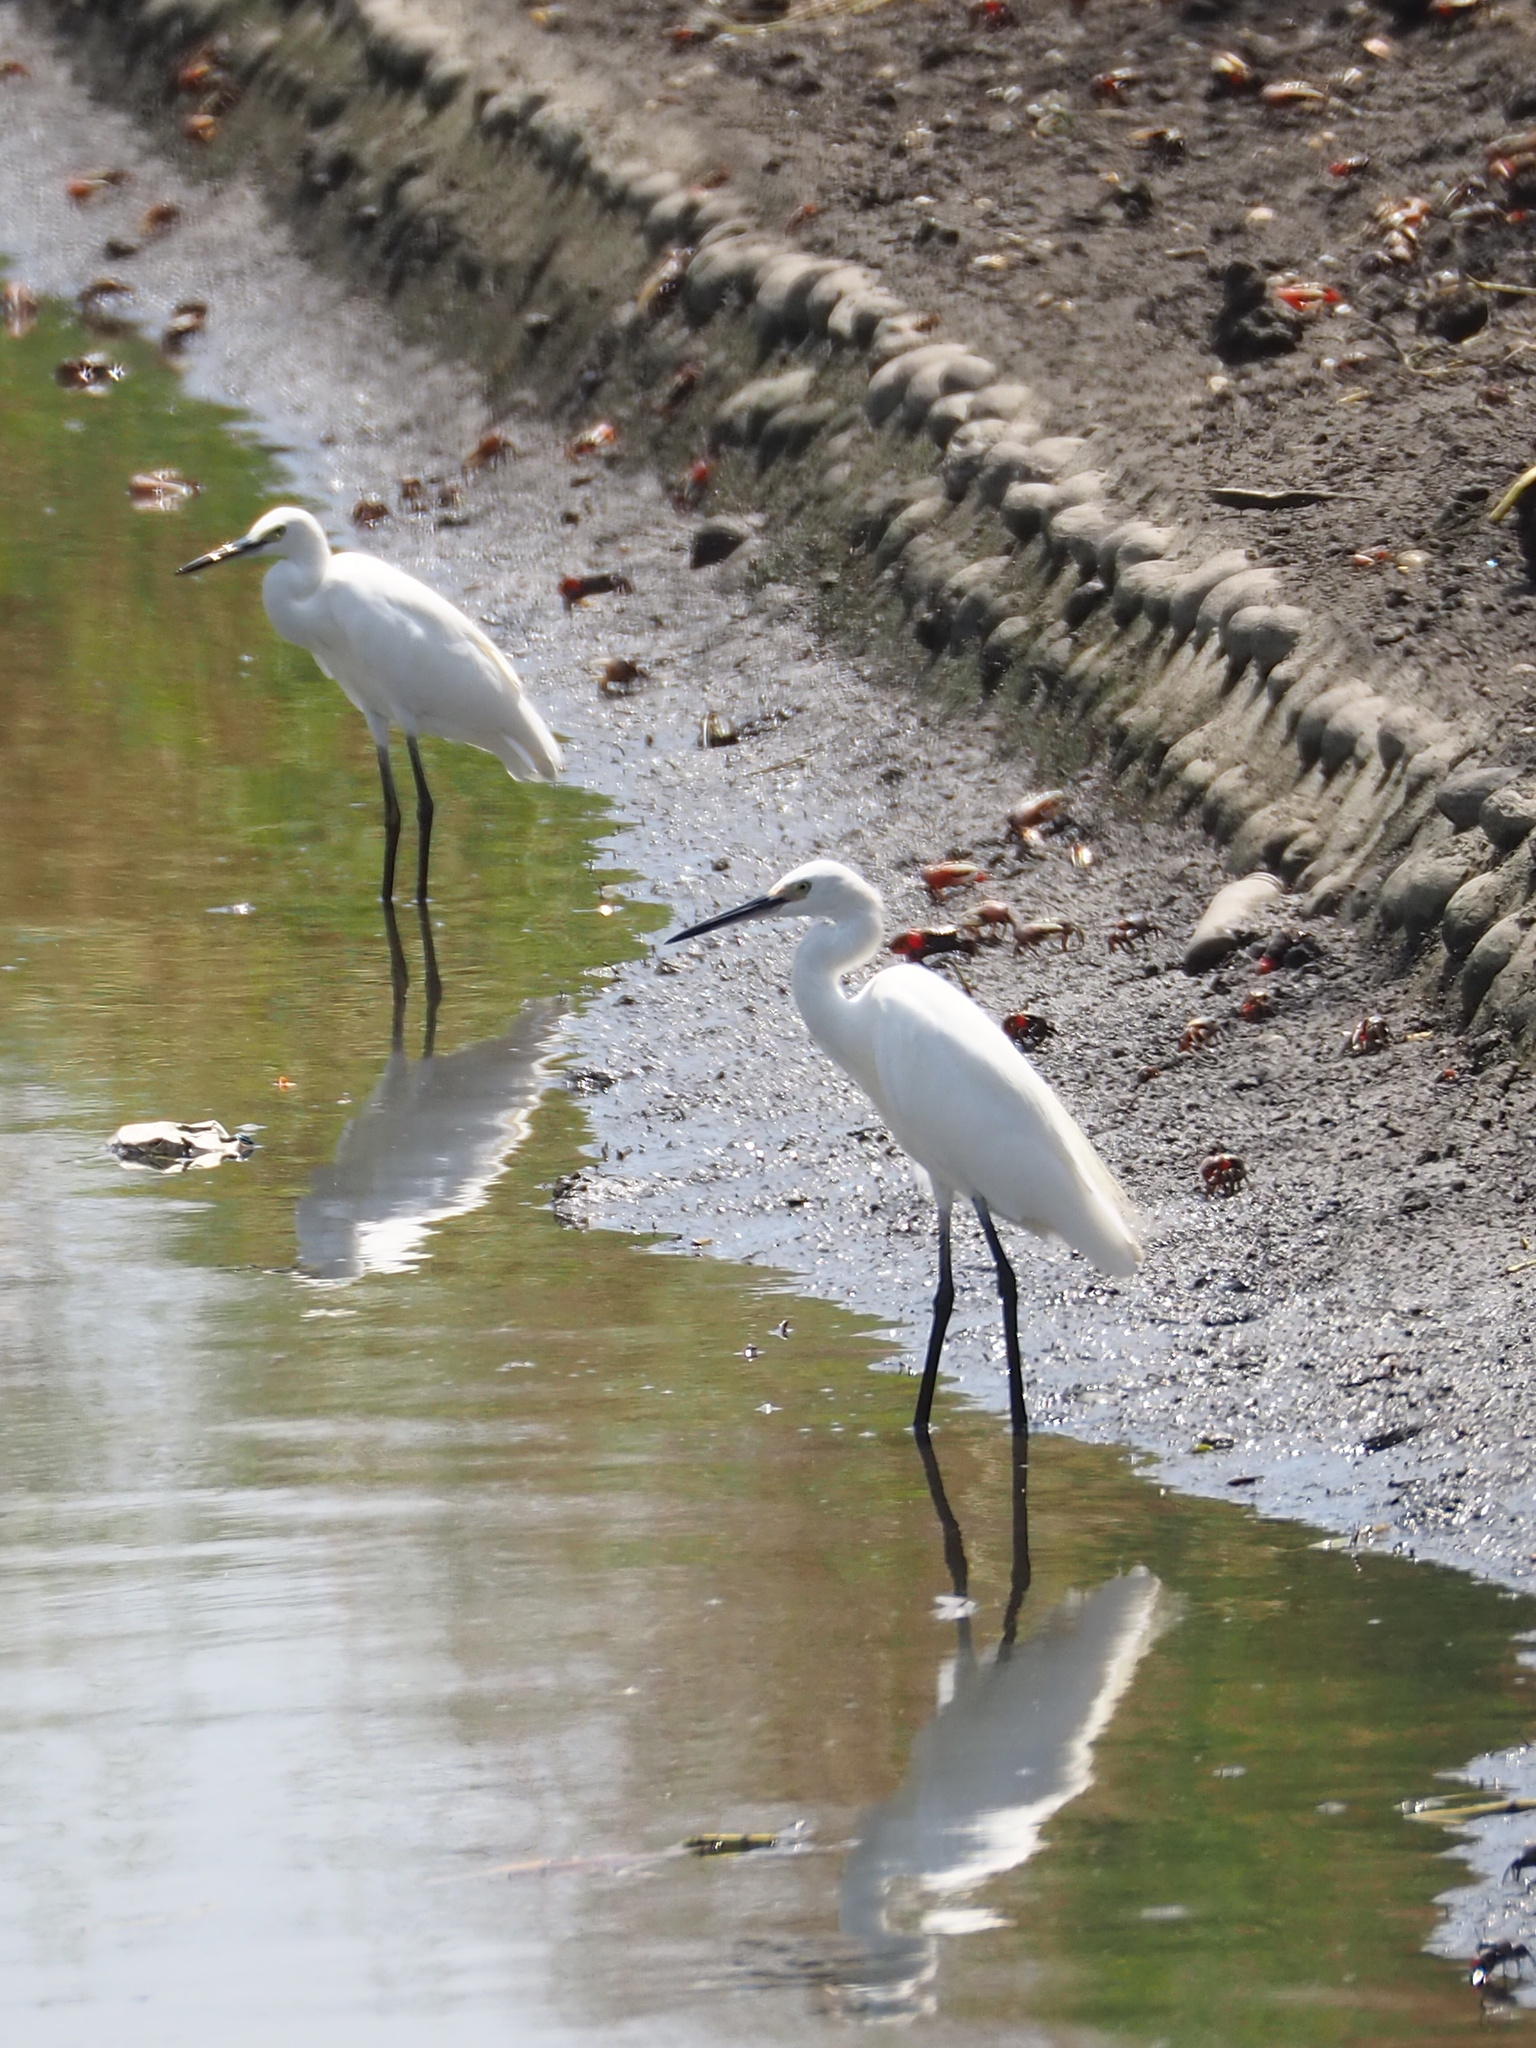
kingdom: Animalia
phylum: Chordata
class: Aves
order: Pelecaniformes
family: Ardeidae
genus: Egretta
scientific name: Egretta garzetta
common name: Little egret
